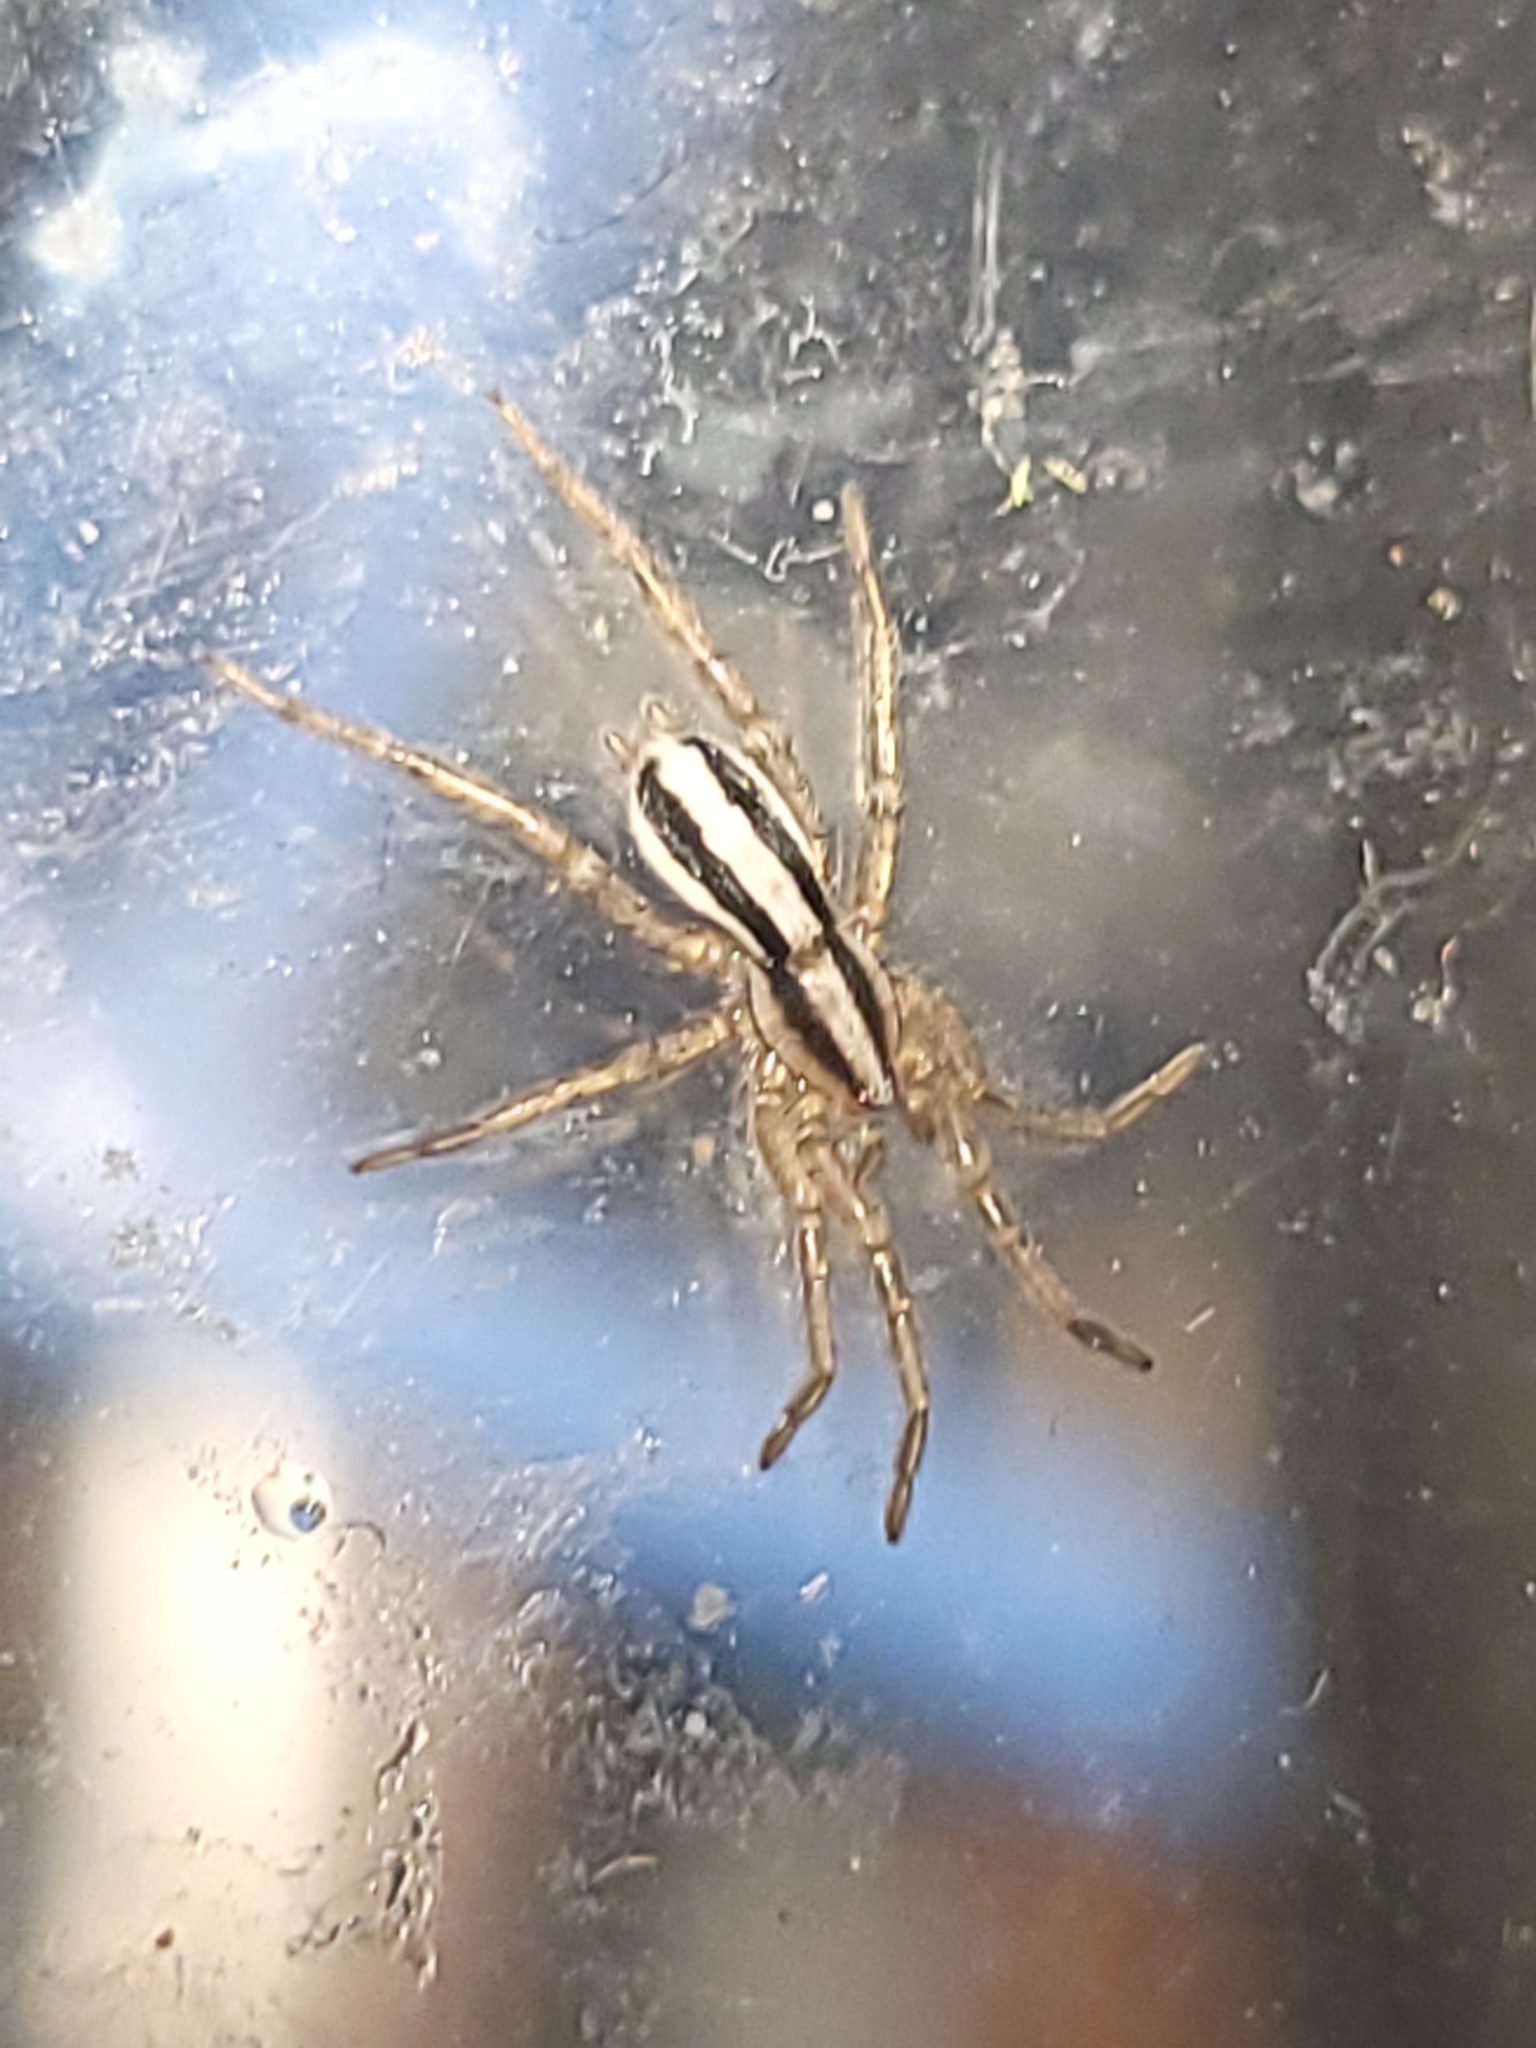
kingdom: Animalia
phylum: Arthropoda
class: Arachnida
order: Araneae
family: Gnaphosidae
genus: Cesonia
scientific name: Cesonia bilineata
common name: Two-lined stealthy ground spider
